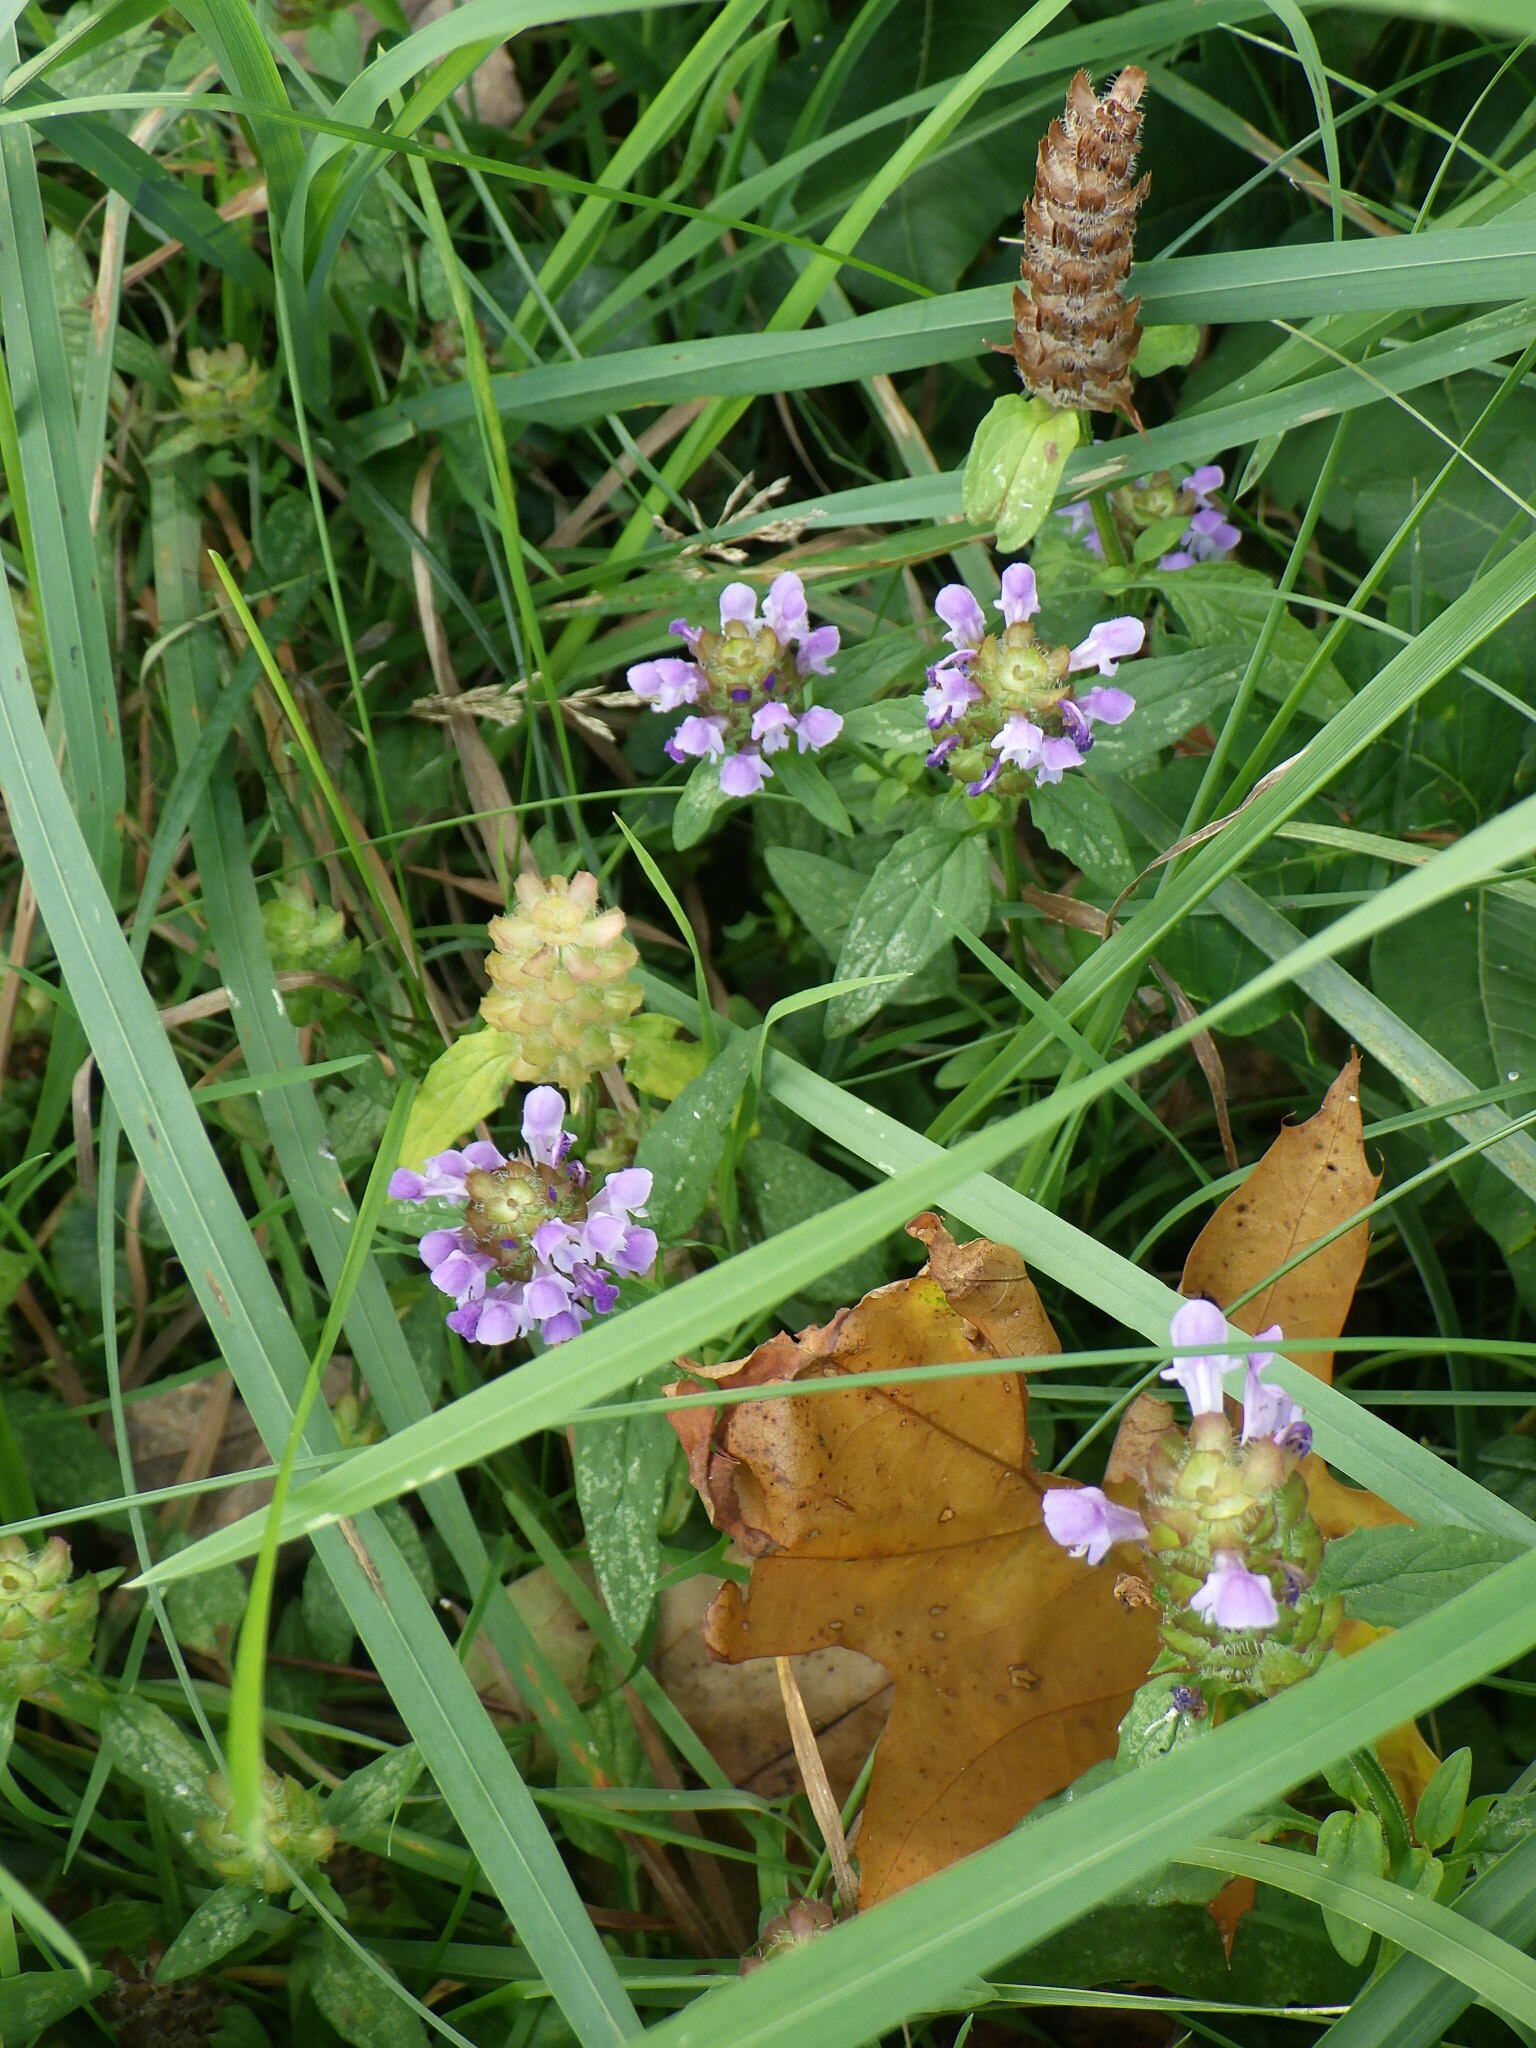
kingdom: Plantae
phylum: Tracheophyta
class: Magnoliopsida
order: Lamiales
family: Lamiaceae
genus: Prunella
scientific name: Prunella vulgaris
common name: Heal-all
